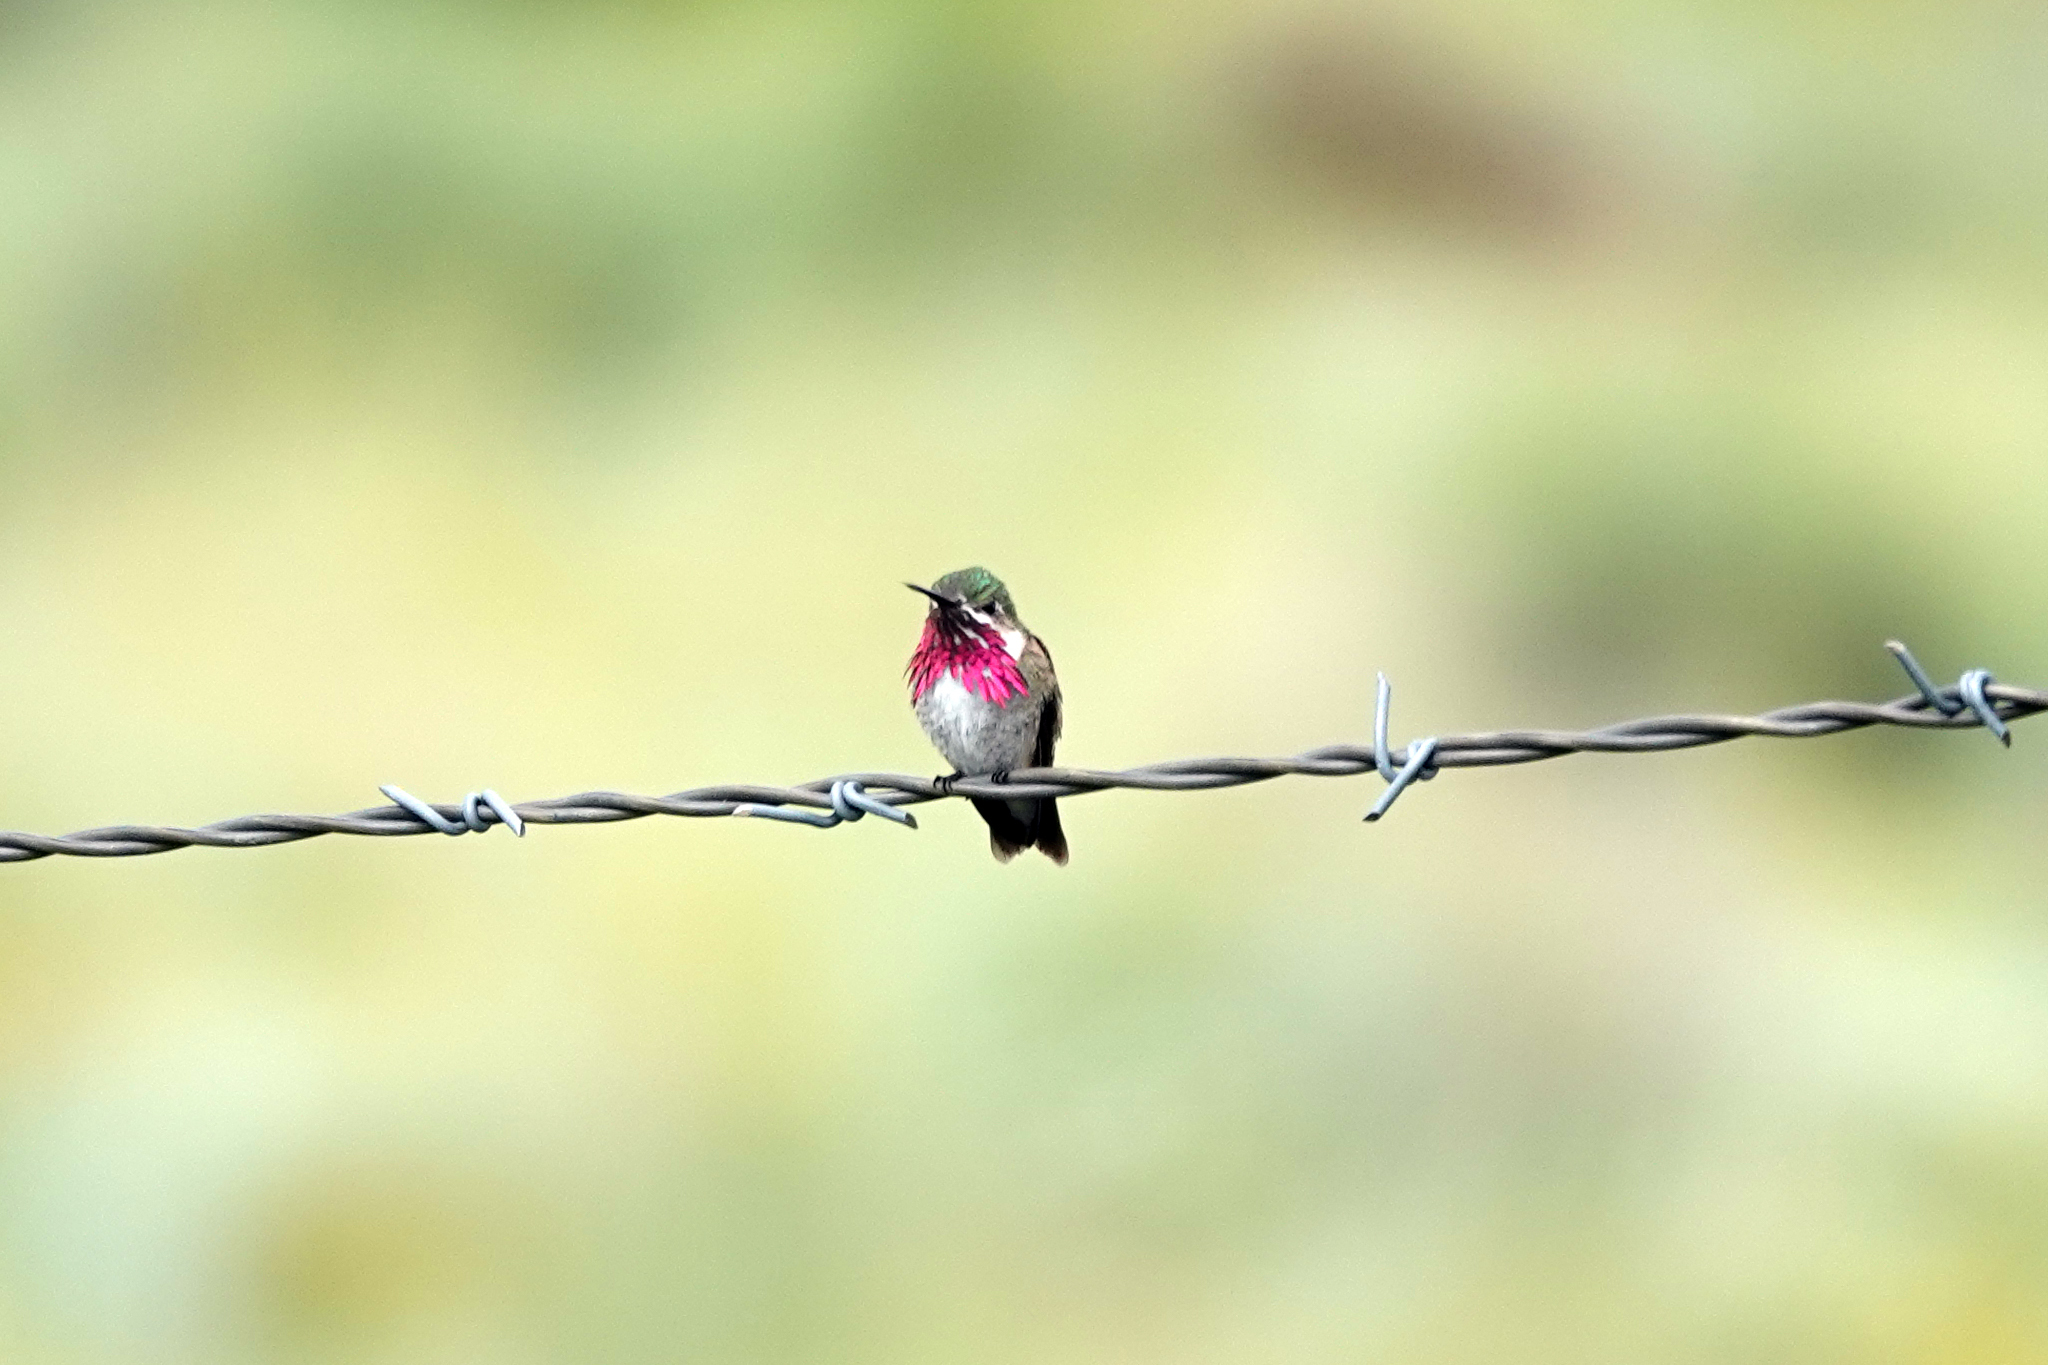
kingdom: Animalia
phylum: Chordata
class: Aves
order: Apodiformes
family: Trochilidae
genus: Selasphorus
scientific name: Selasphorus calliope
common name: Calliope hummingbird
